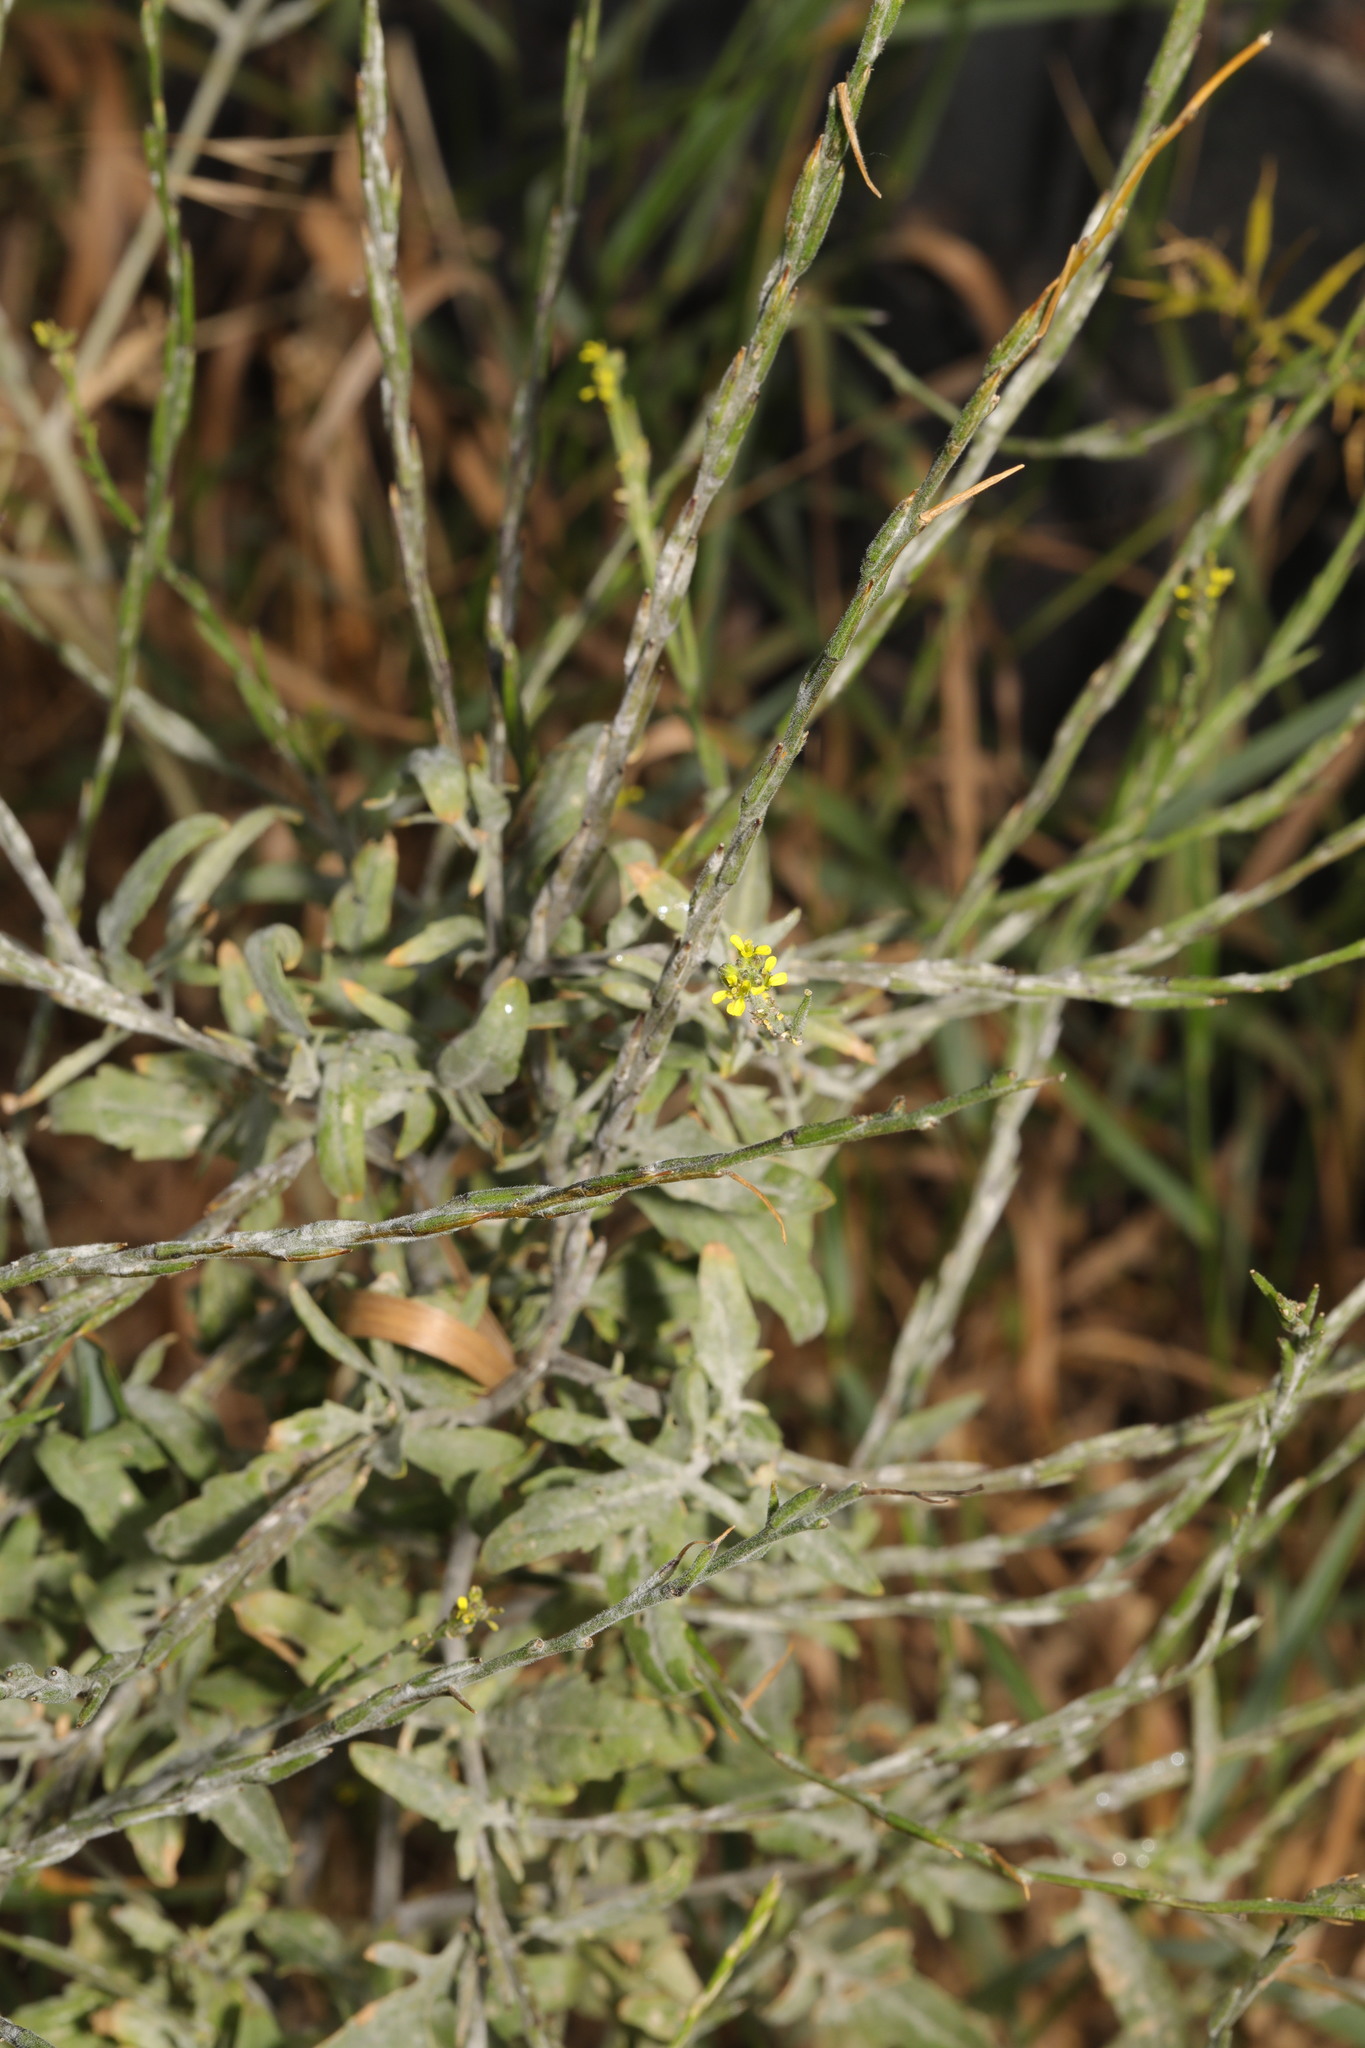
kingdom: Plantae
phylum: Tracheophyta
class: Magnoliopsida
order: Brassicales
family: Brassicaceae
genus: Sisymbrium
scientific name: Sisymbrium officinale
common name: Hedge mustard
